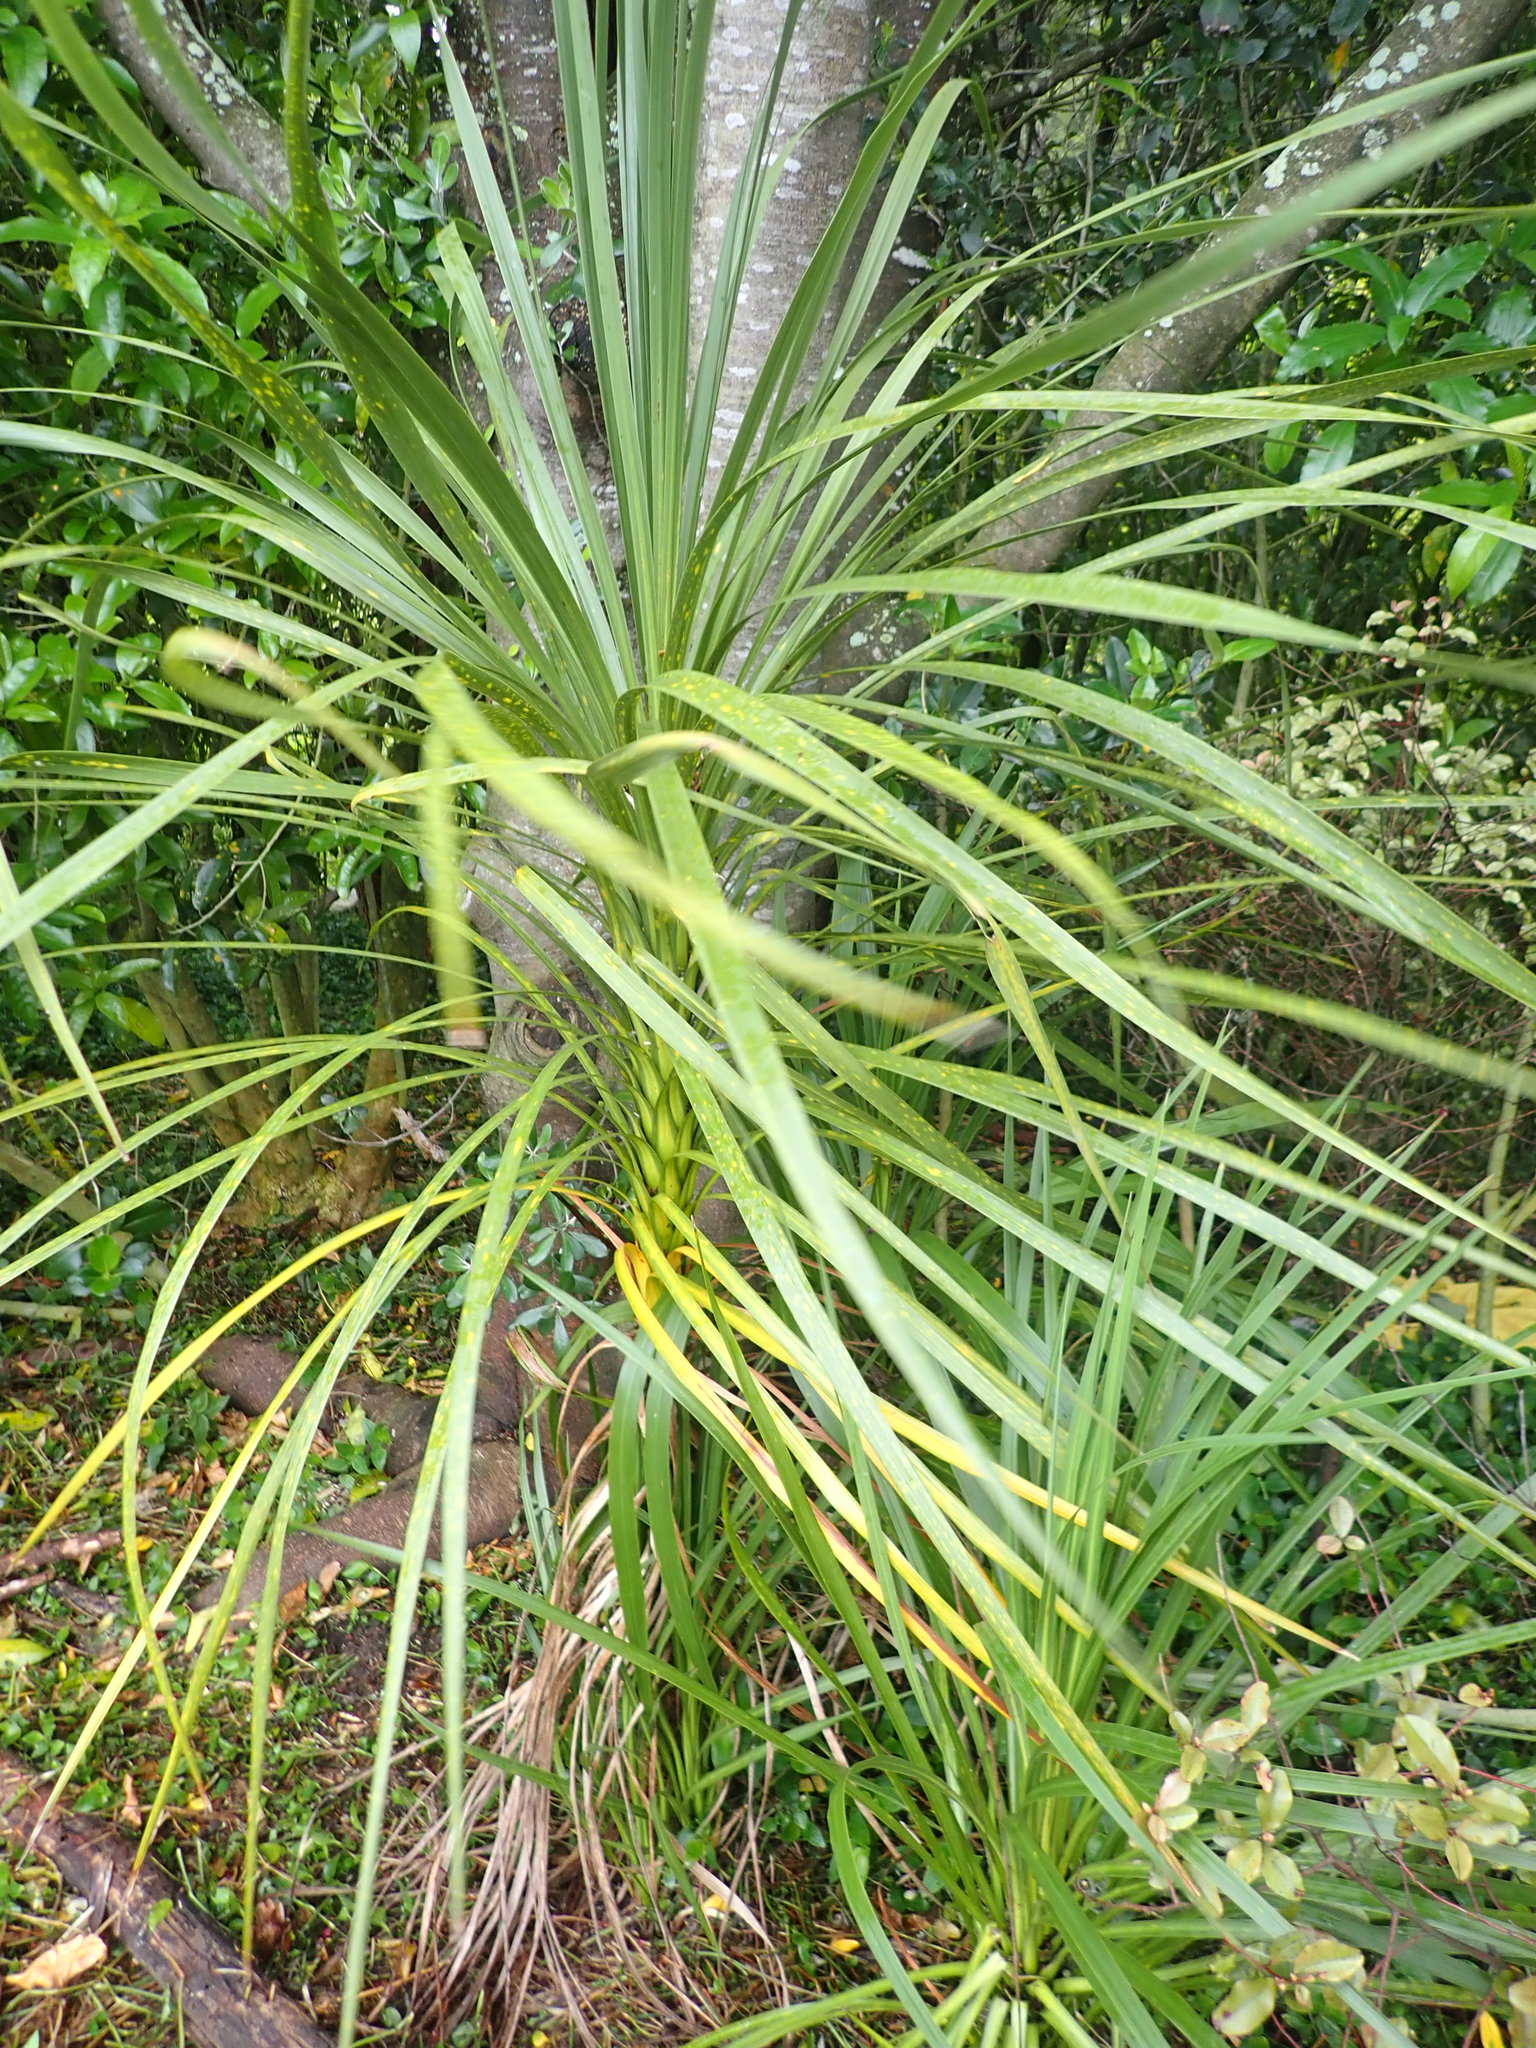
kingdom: Plantae
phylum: Tracheophyta
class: Liliopsida
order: Asparagales
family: Asparagaceae
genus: Cordyline
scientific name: Cordyline australis
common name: Cabbage-palm
